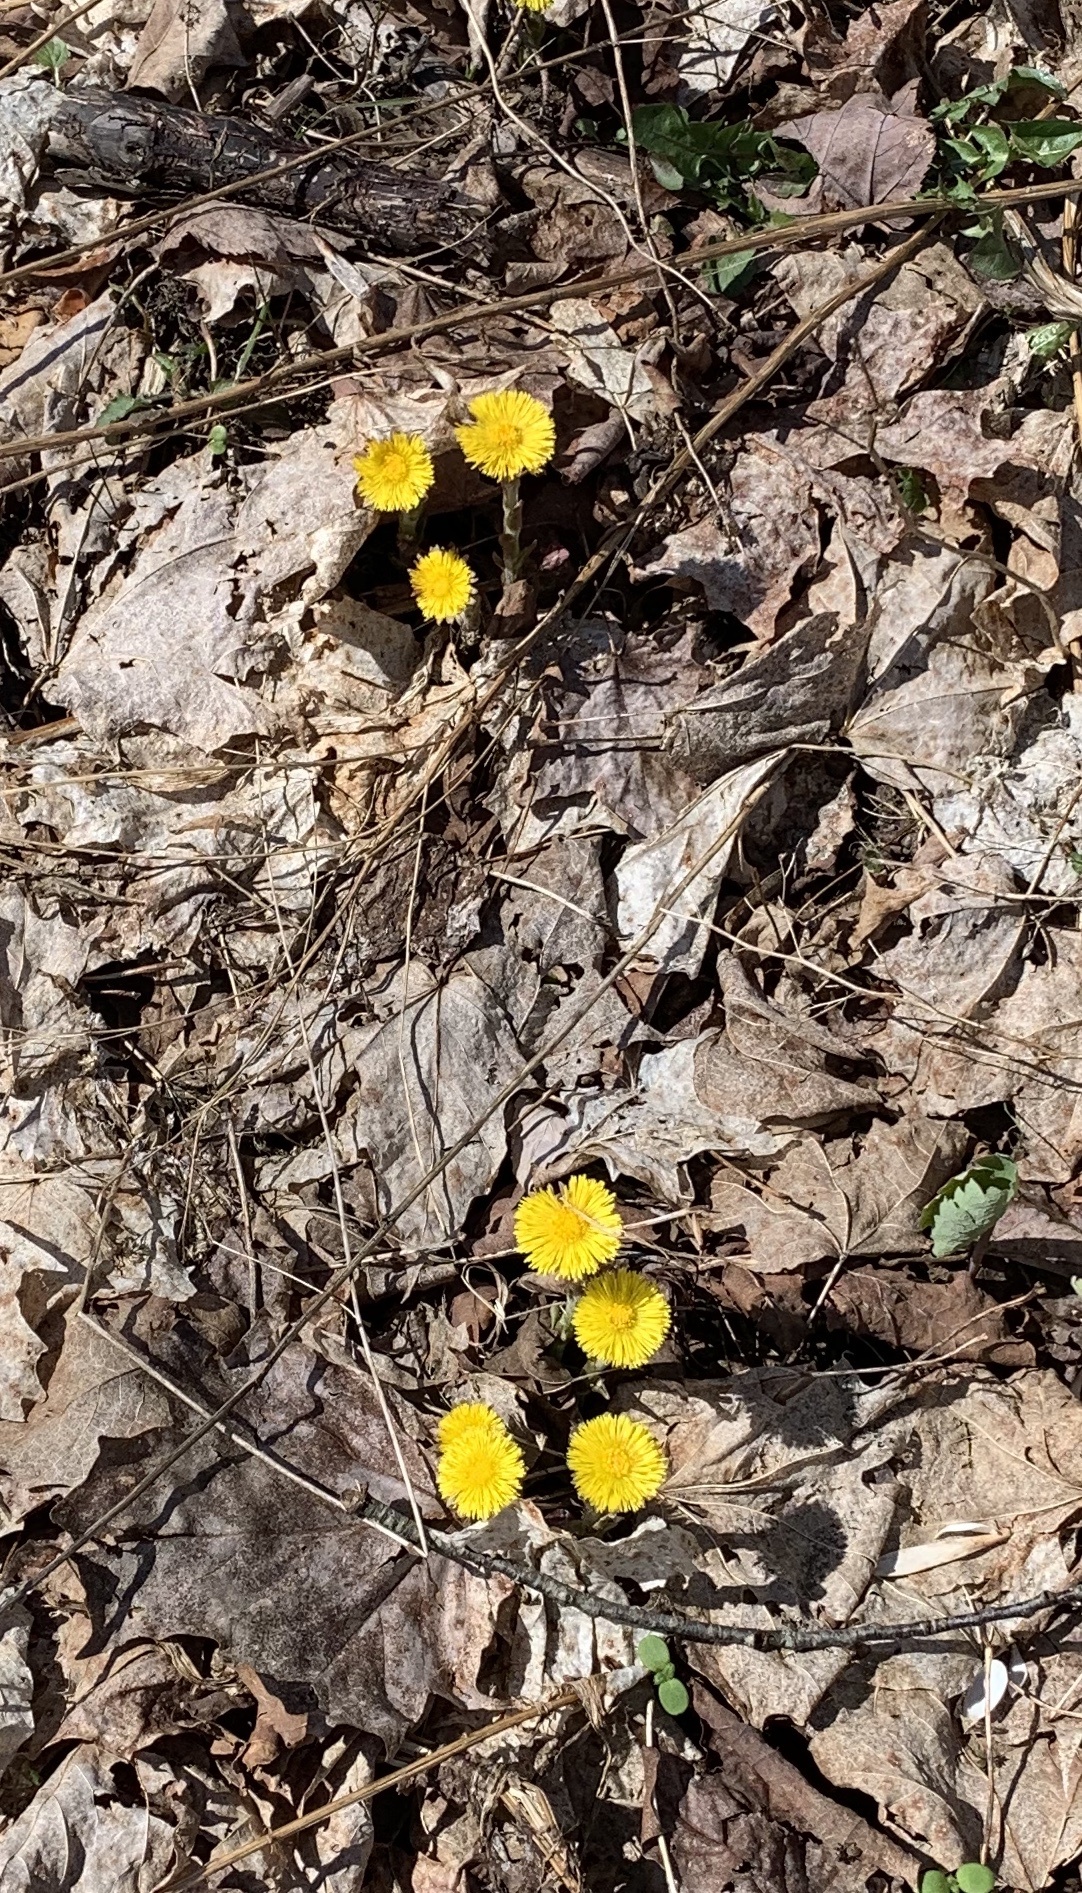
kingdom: Plantae
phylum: Tracheophyta
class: Magnoliopsida
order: Asterales
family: Asteraceae
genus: Tussilago
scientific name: Tussilago farfara
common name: Coltsfoot
